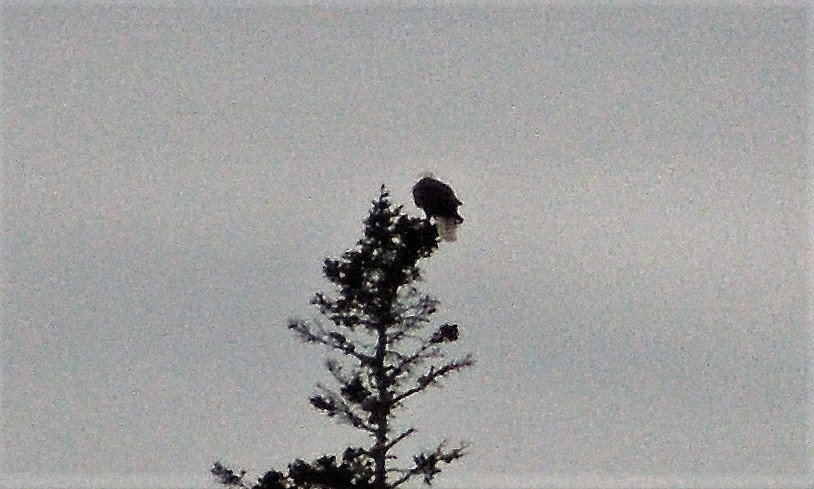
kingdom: Animalia
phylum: Chordata
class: Aves
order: Accipitriformes
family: Accipitridae
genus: Haliaeetus
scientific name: Haliaeetus leucocephalus
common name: Bald eagle
